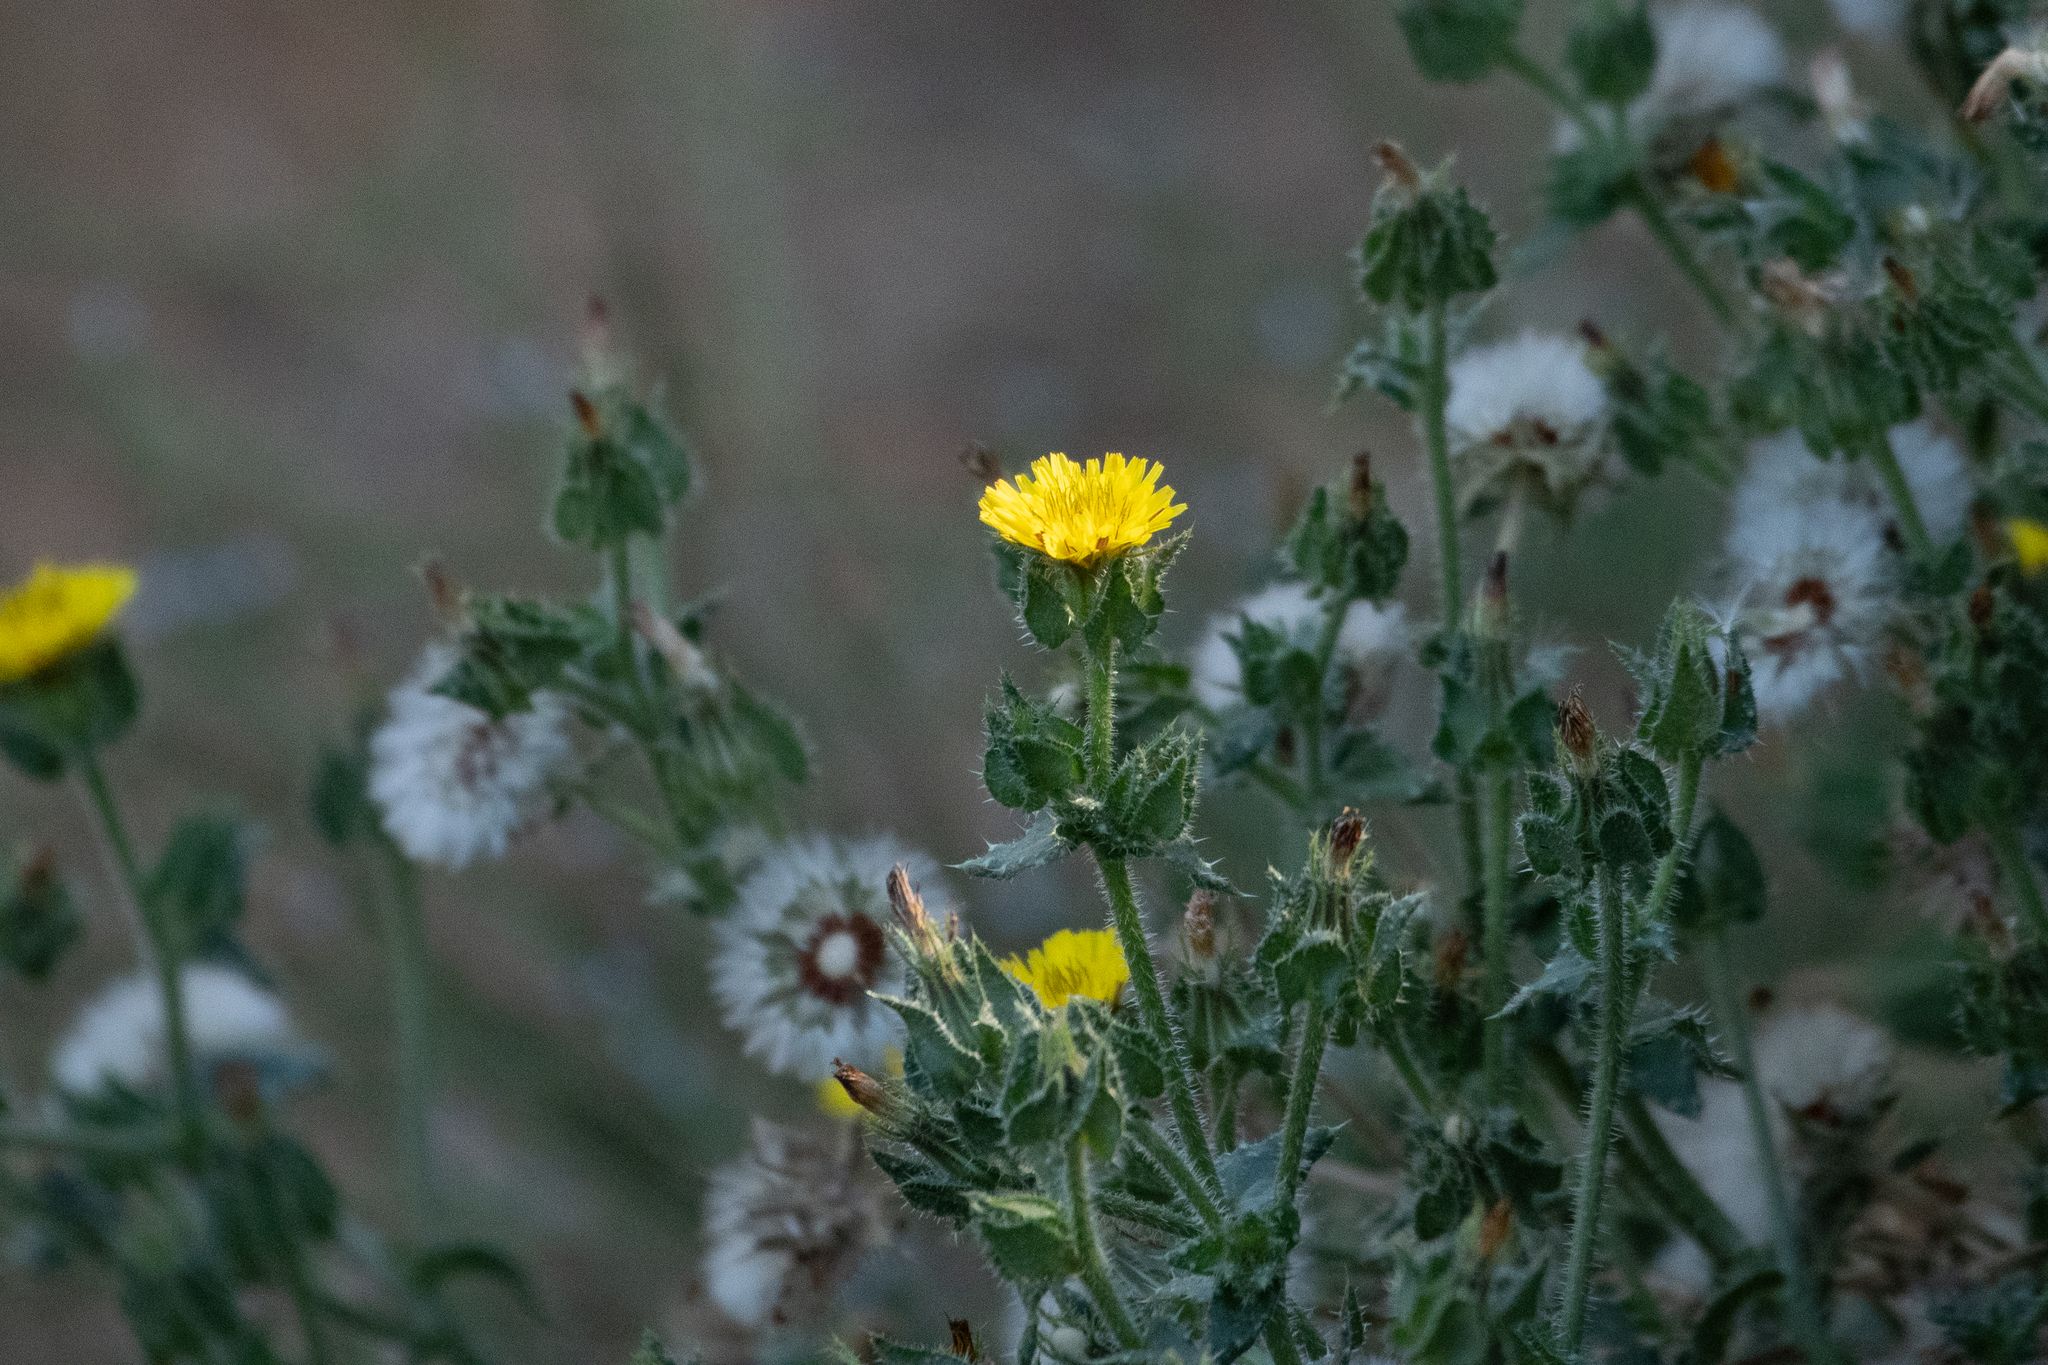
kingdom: Plantae
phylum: Tracheophyta
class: Magnoliopsida
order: Asterales
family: Asteraceae
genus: Helminthotheca
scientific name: Helminthotheca echioides
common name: Ox-tongue
